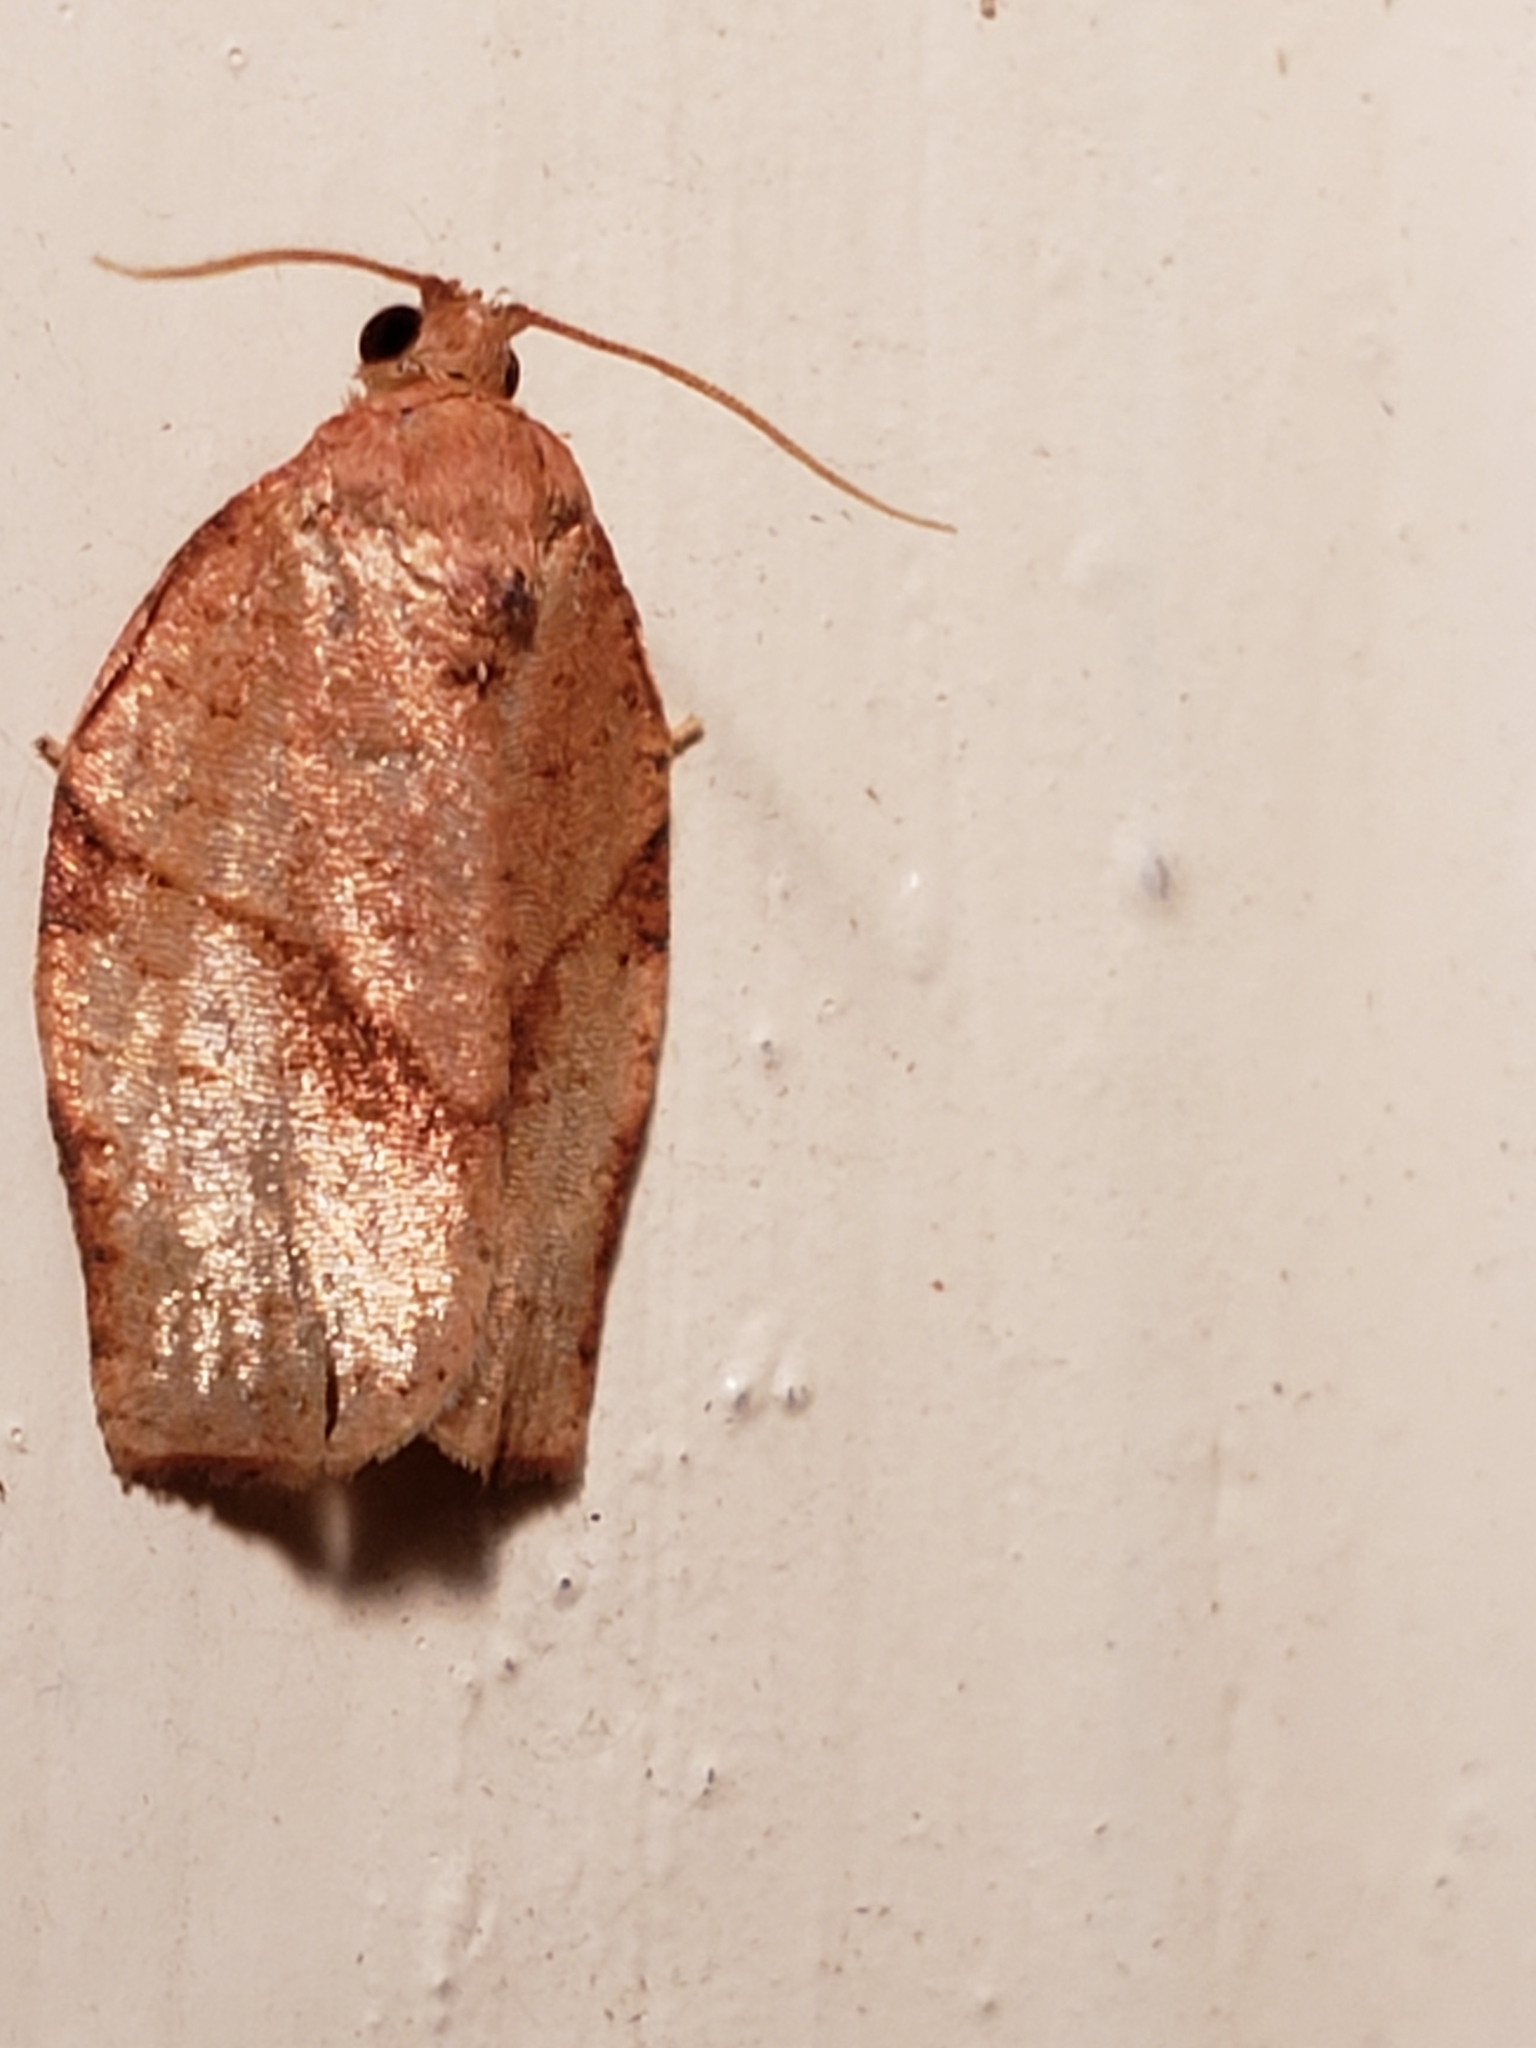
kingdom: Animalia
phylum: Arthropoda
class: Insecta
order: Lepidoptera
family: Tortricidae
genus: Choristoneura
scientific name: Choristoneura rosaceana
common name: Oblique-banded leafroller moth
